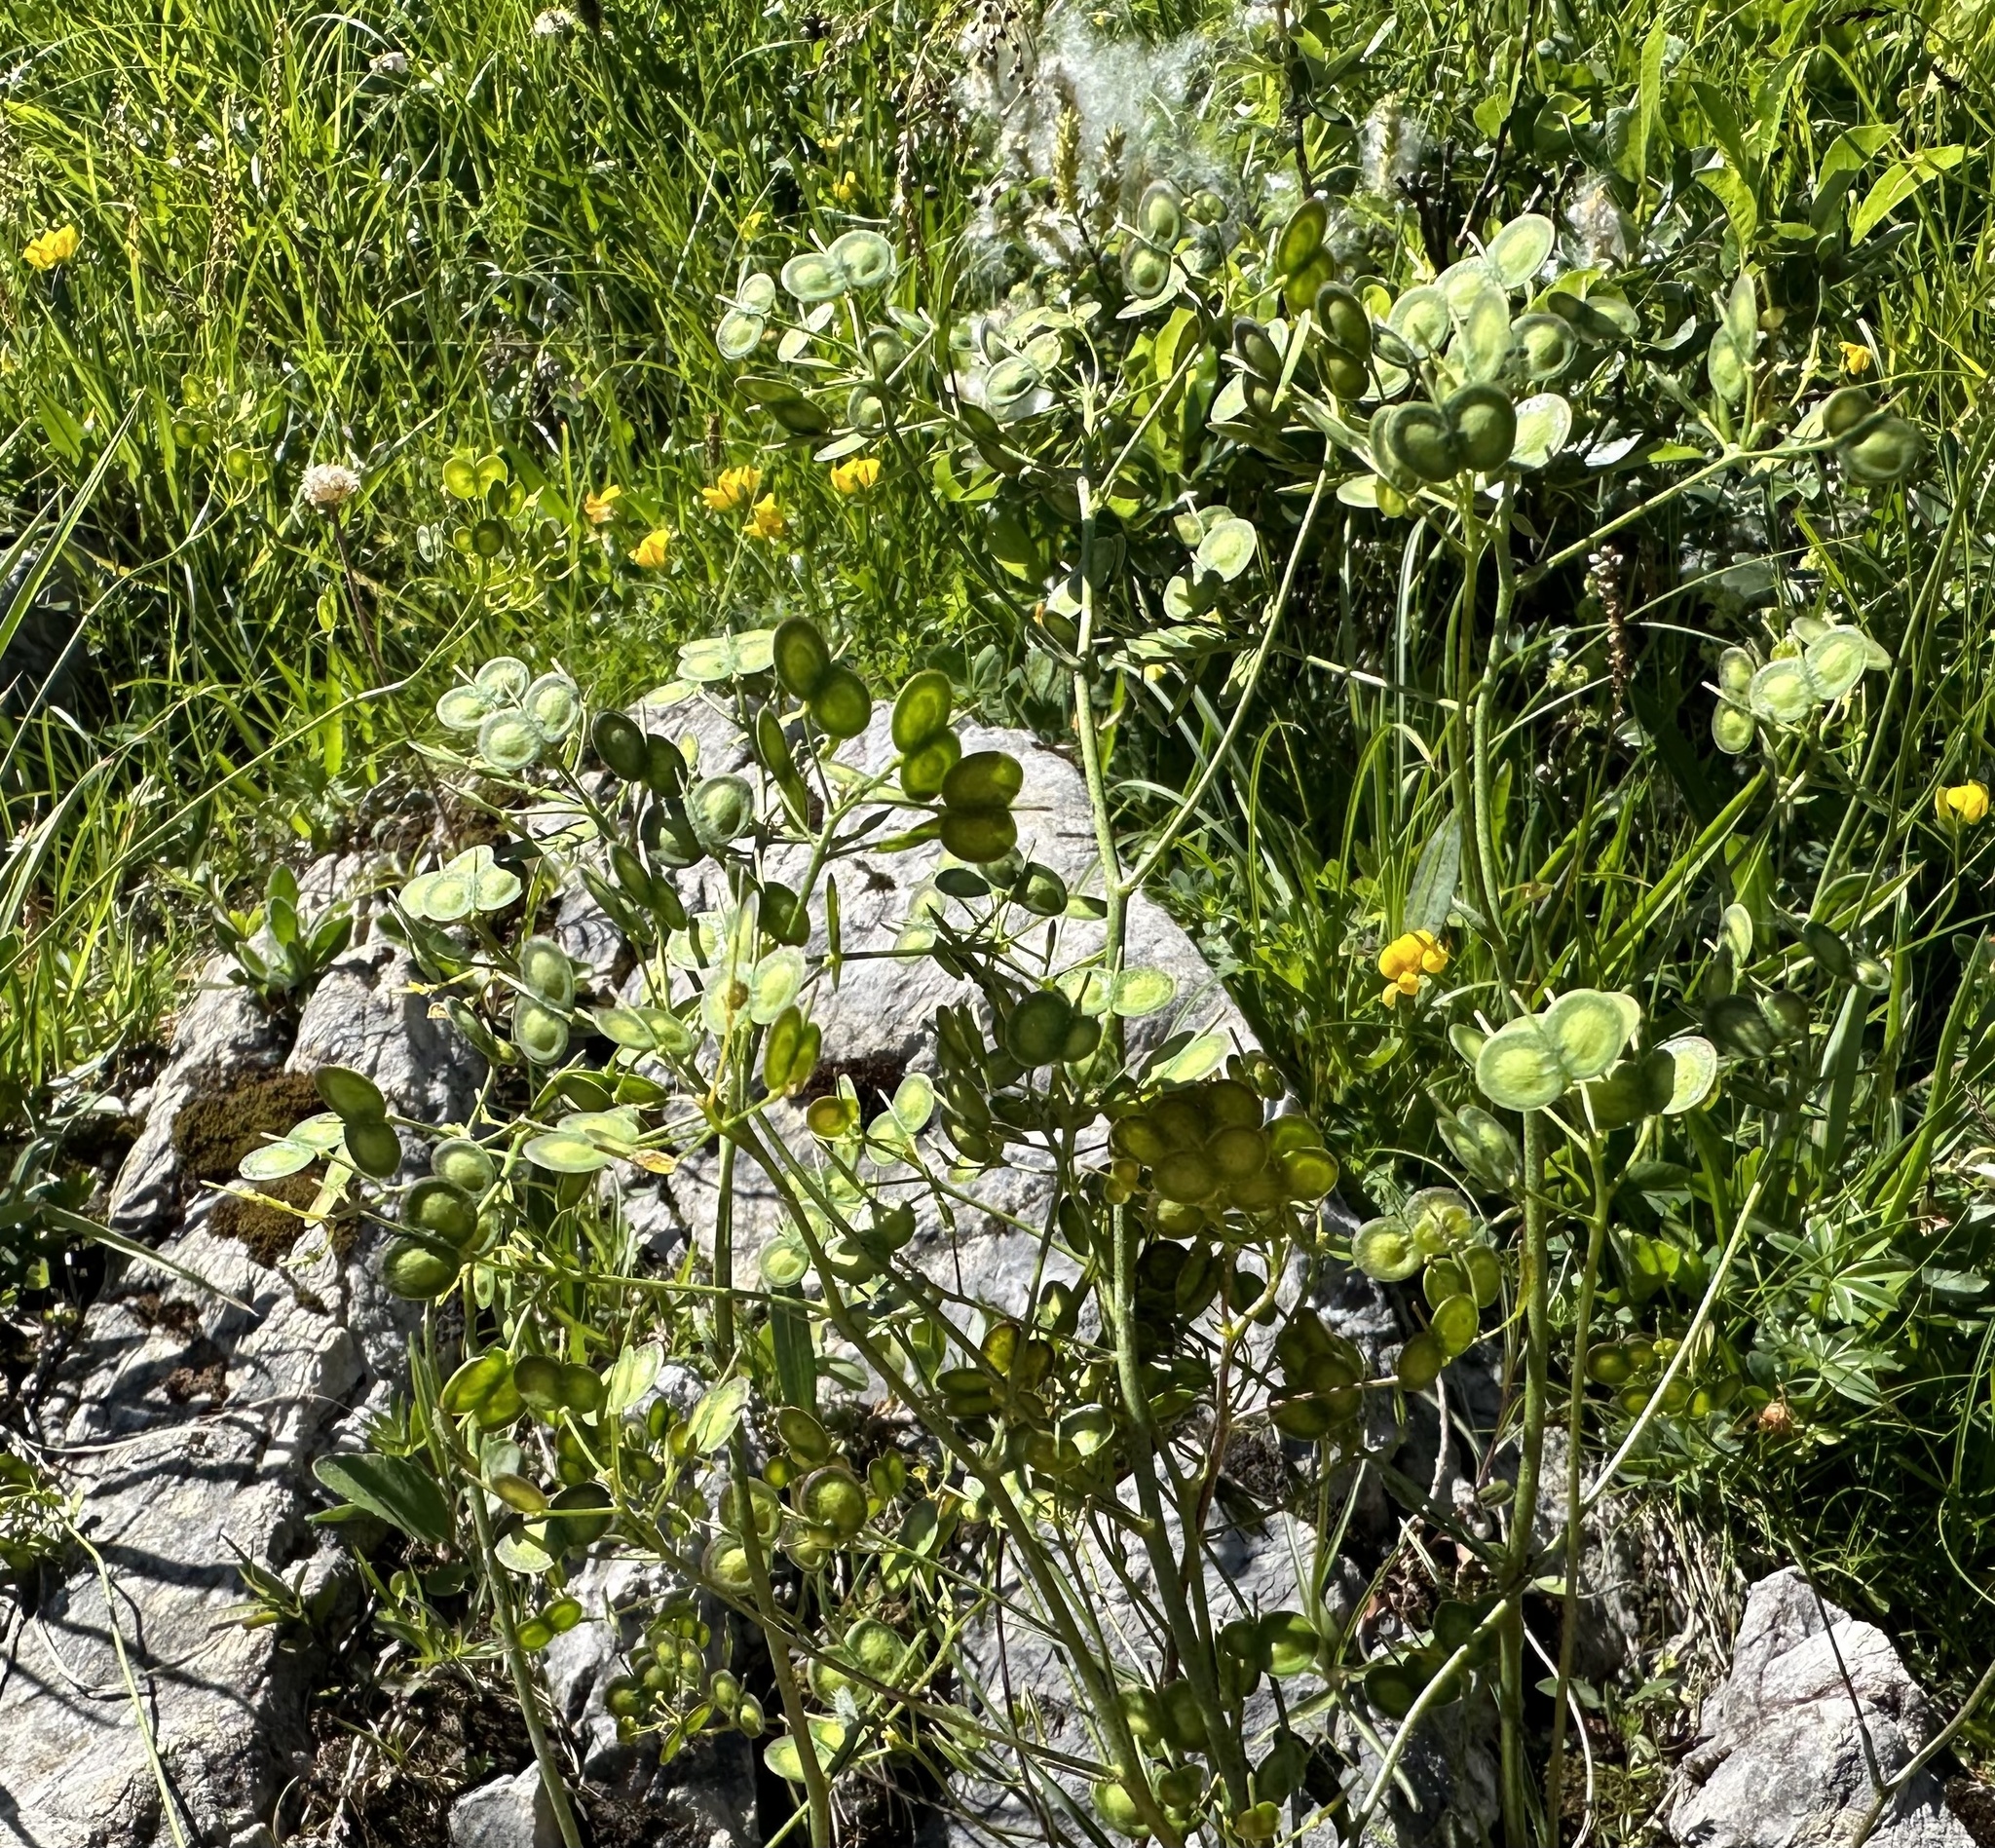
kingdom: Plantae
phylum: Tracheophyta
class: Magnoliopsida
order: Brassicales
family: Brassicaceae
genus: Biscutella
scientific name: Biscutella laevigata
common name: Buckler mustard
